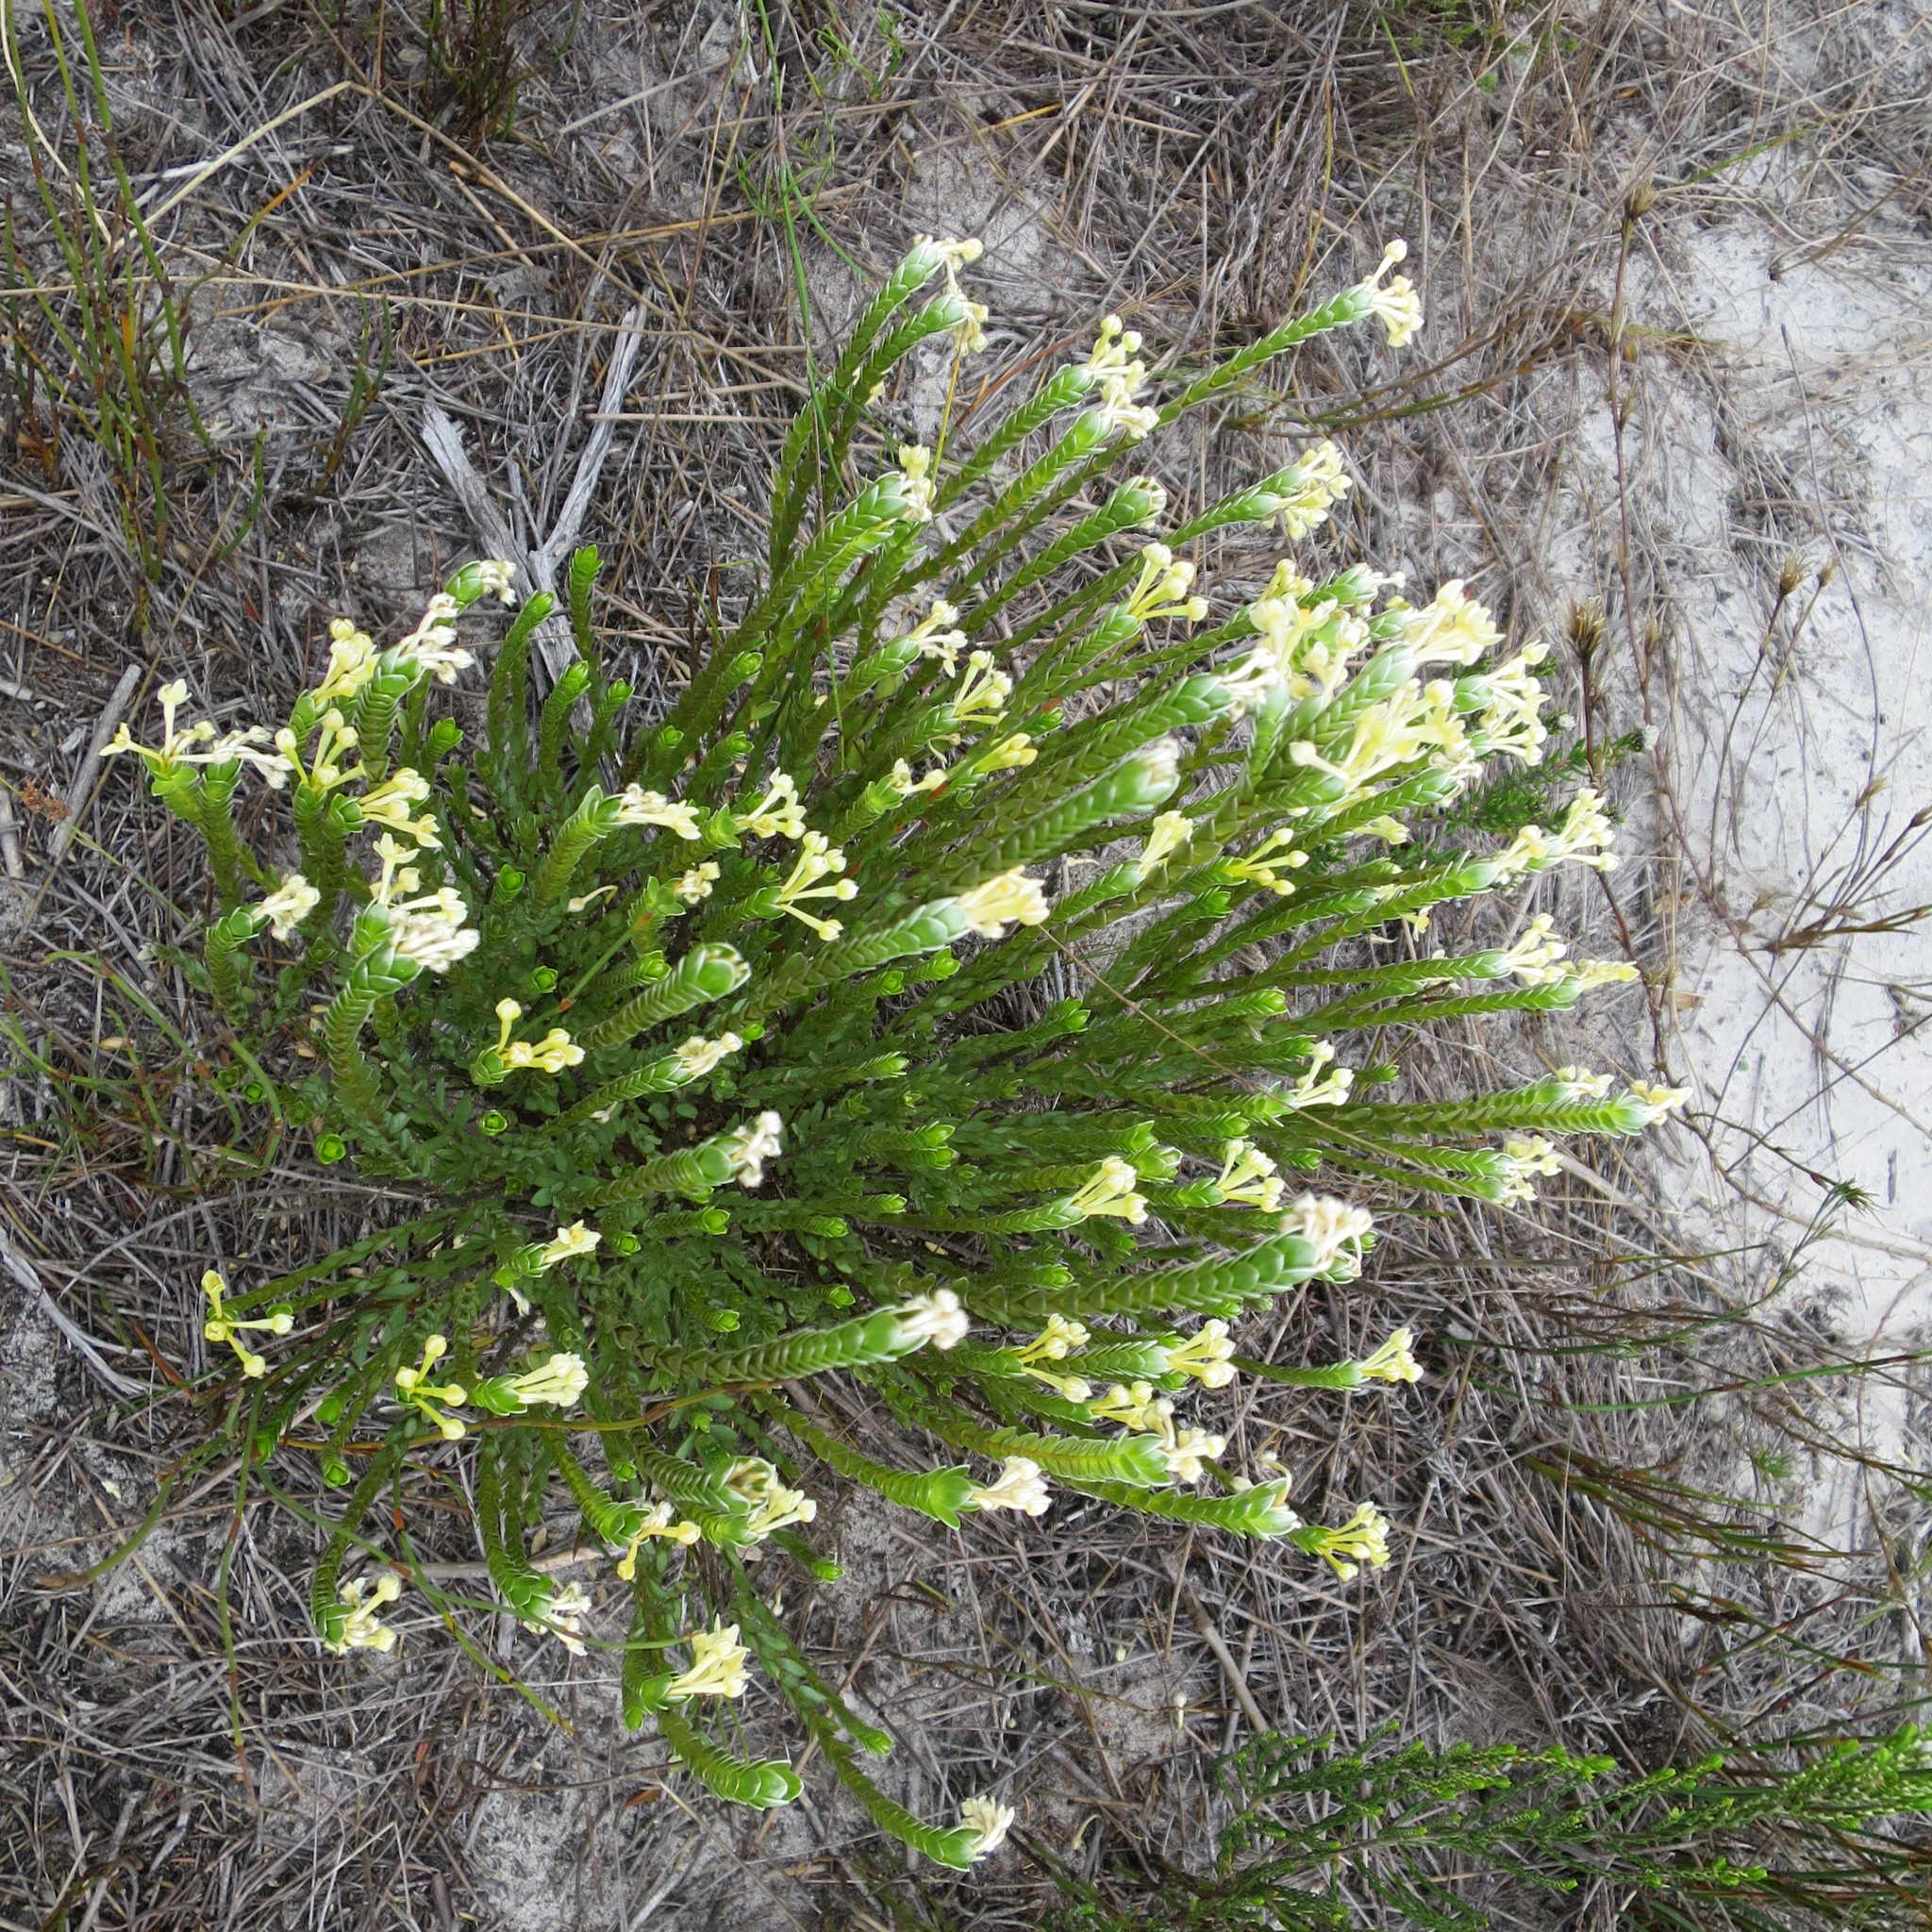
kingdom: Plantae
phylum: Tracheophyta
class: Magnoliopsida
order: Malvales
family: Thymelaeaceae
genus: Gnidia
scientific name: Gnidia chrysophylla
